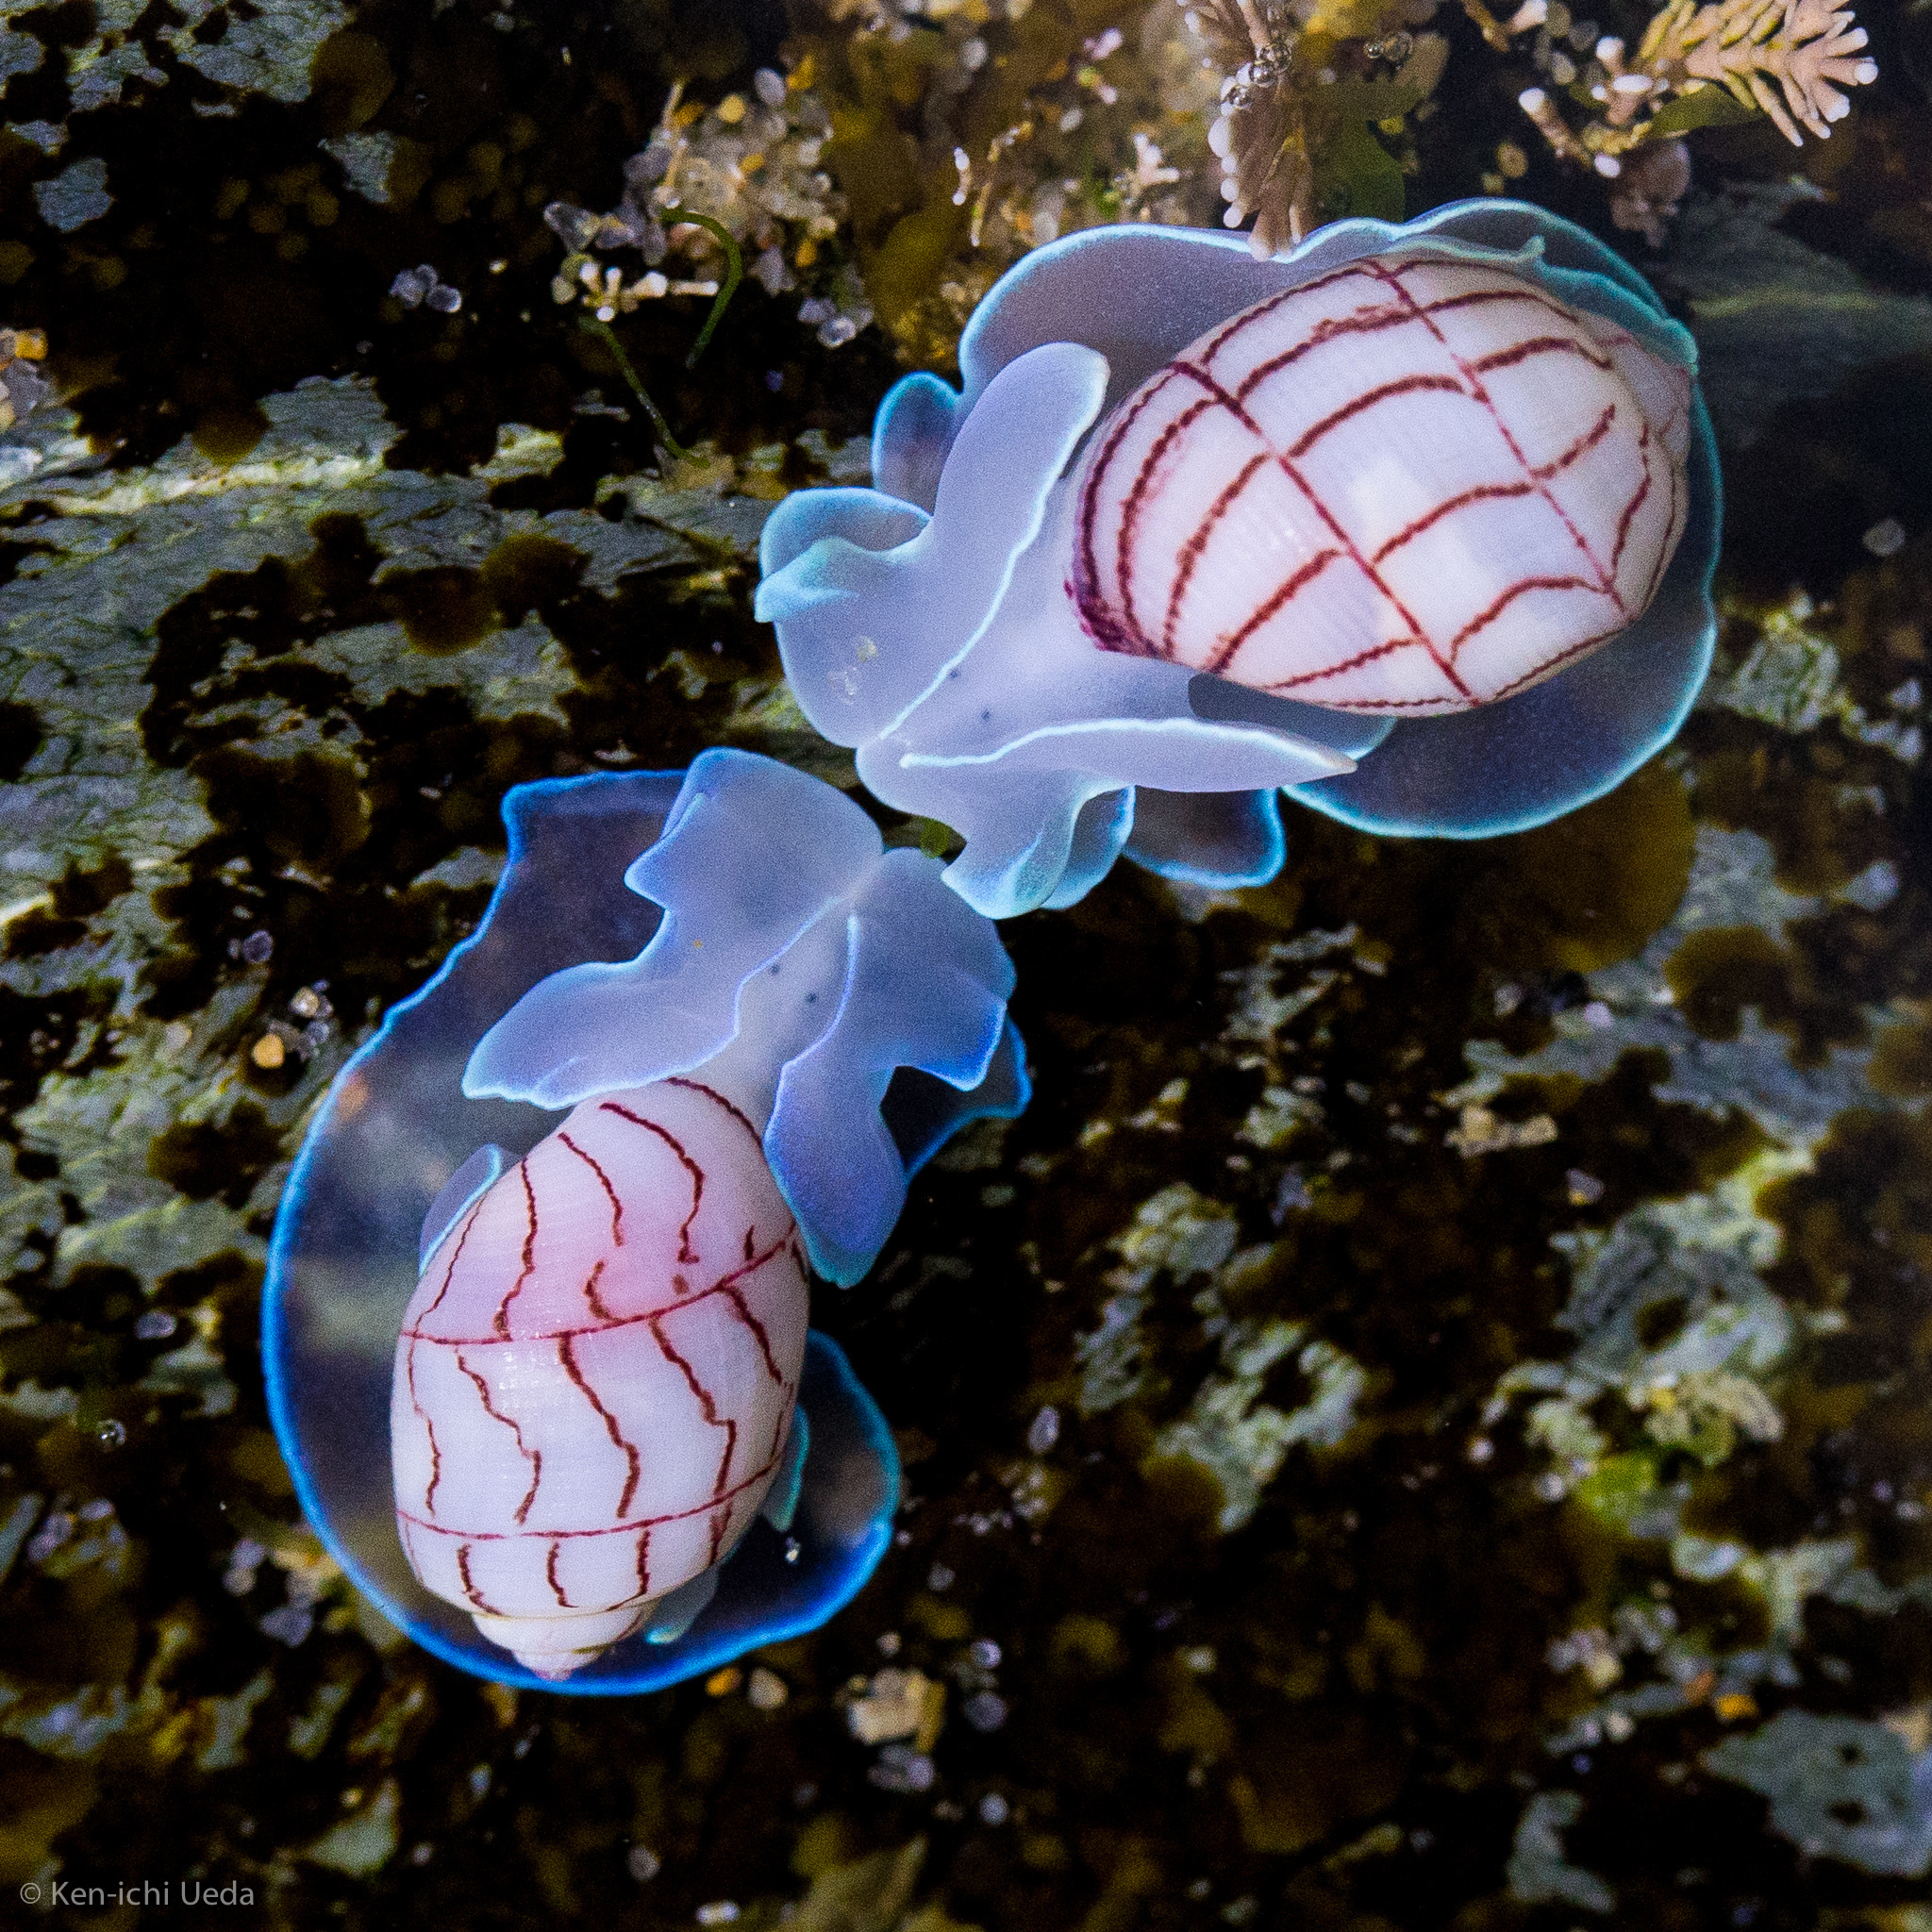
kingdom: Animalia
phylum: Mollusca
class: Gastropoda
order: Cephalaspidea
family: Aplustridae
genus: Bullina
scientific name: Bullina lineata
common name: Lined bubble snail
